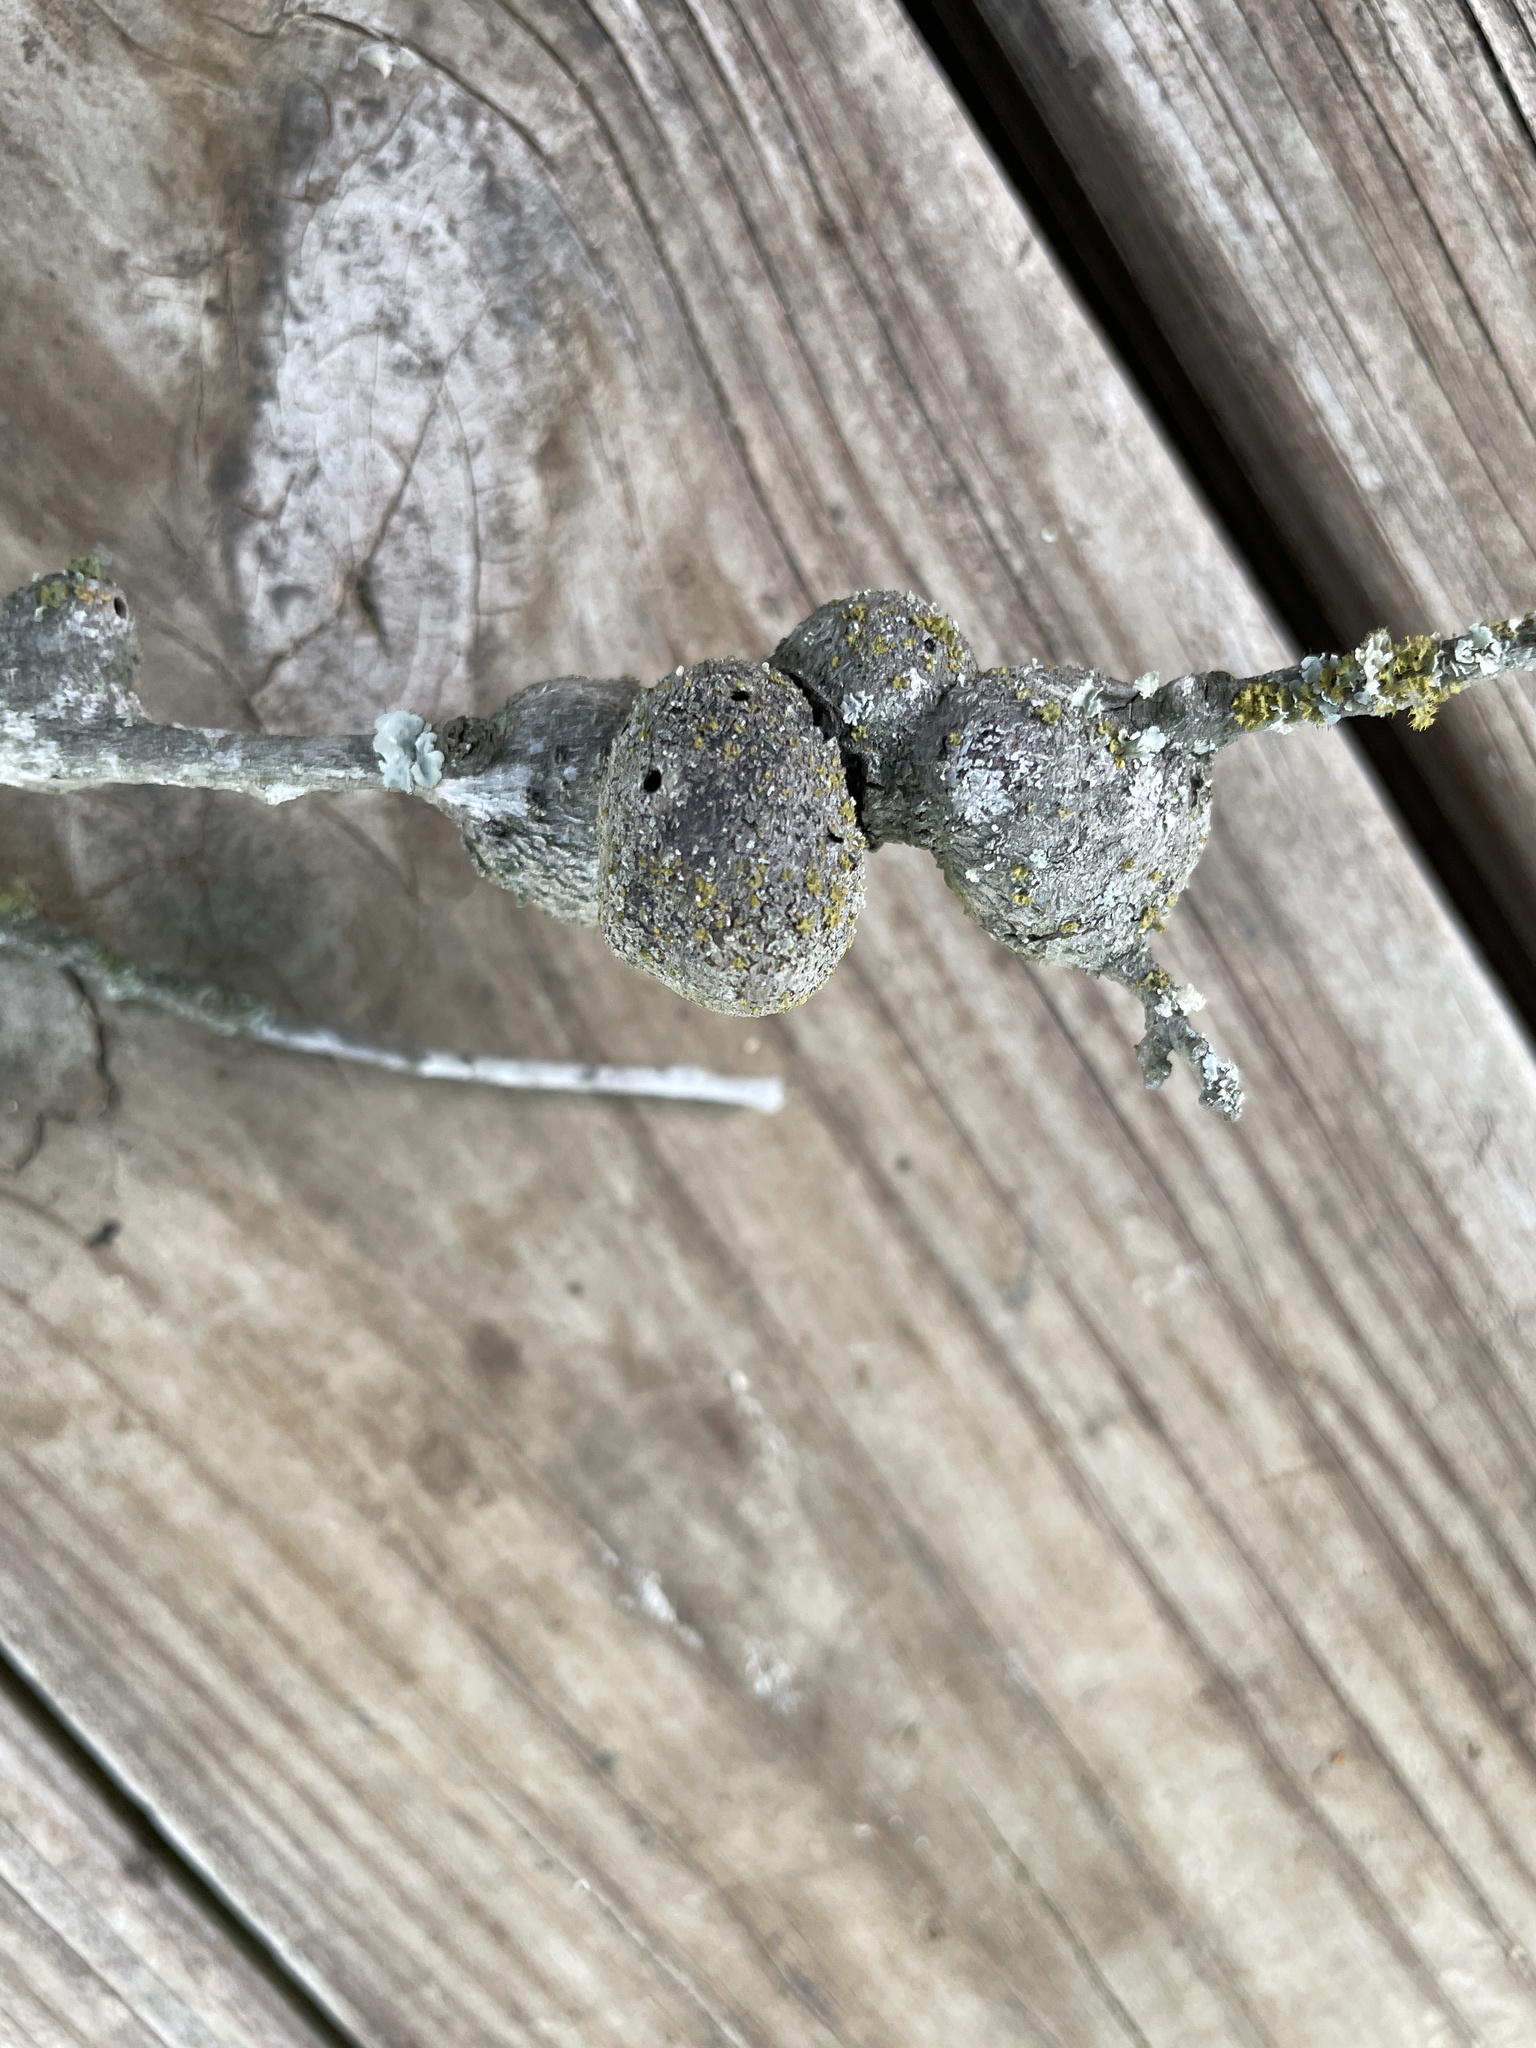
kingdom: Animalia
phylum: Arthropoda
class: Insecta
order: Hymenoptera
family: Cynipidae
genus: Callirhytis
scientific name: Callirhytis
